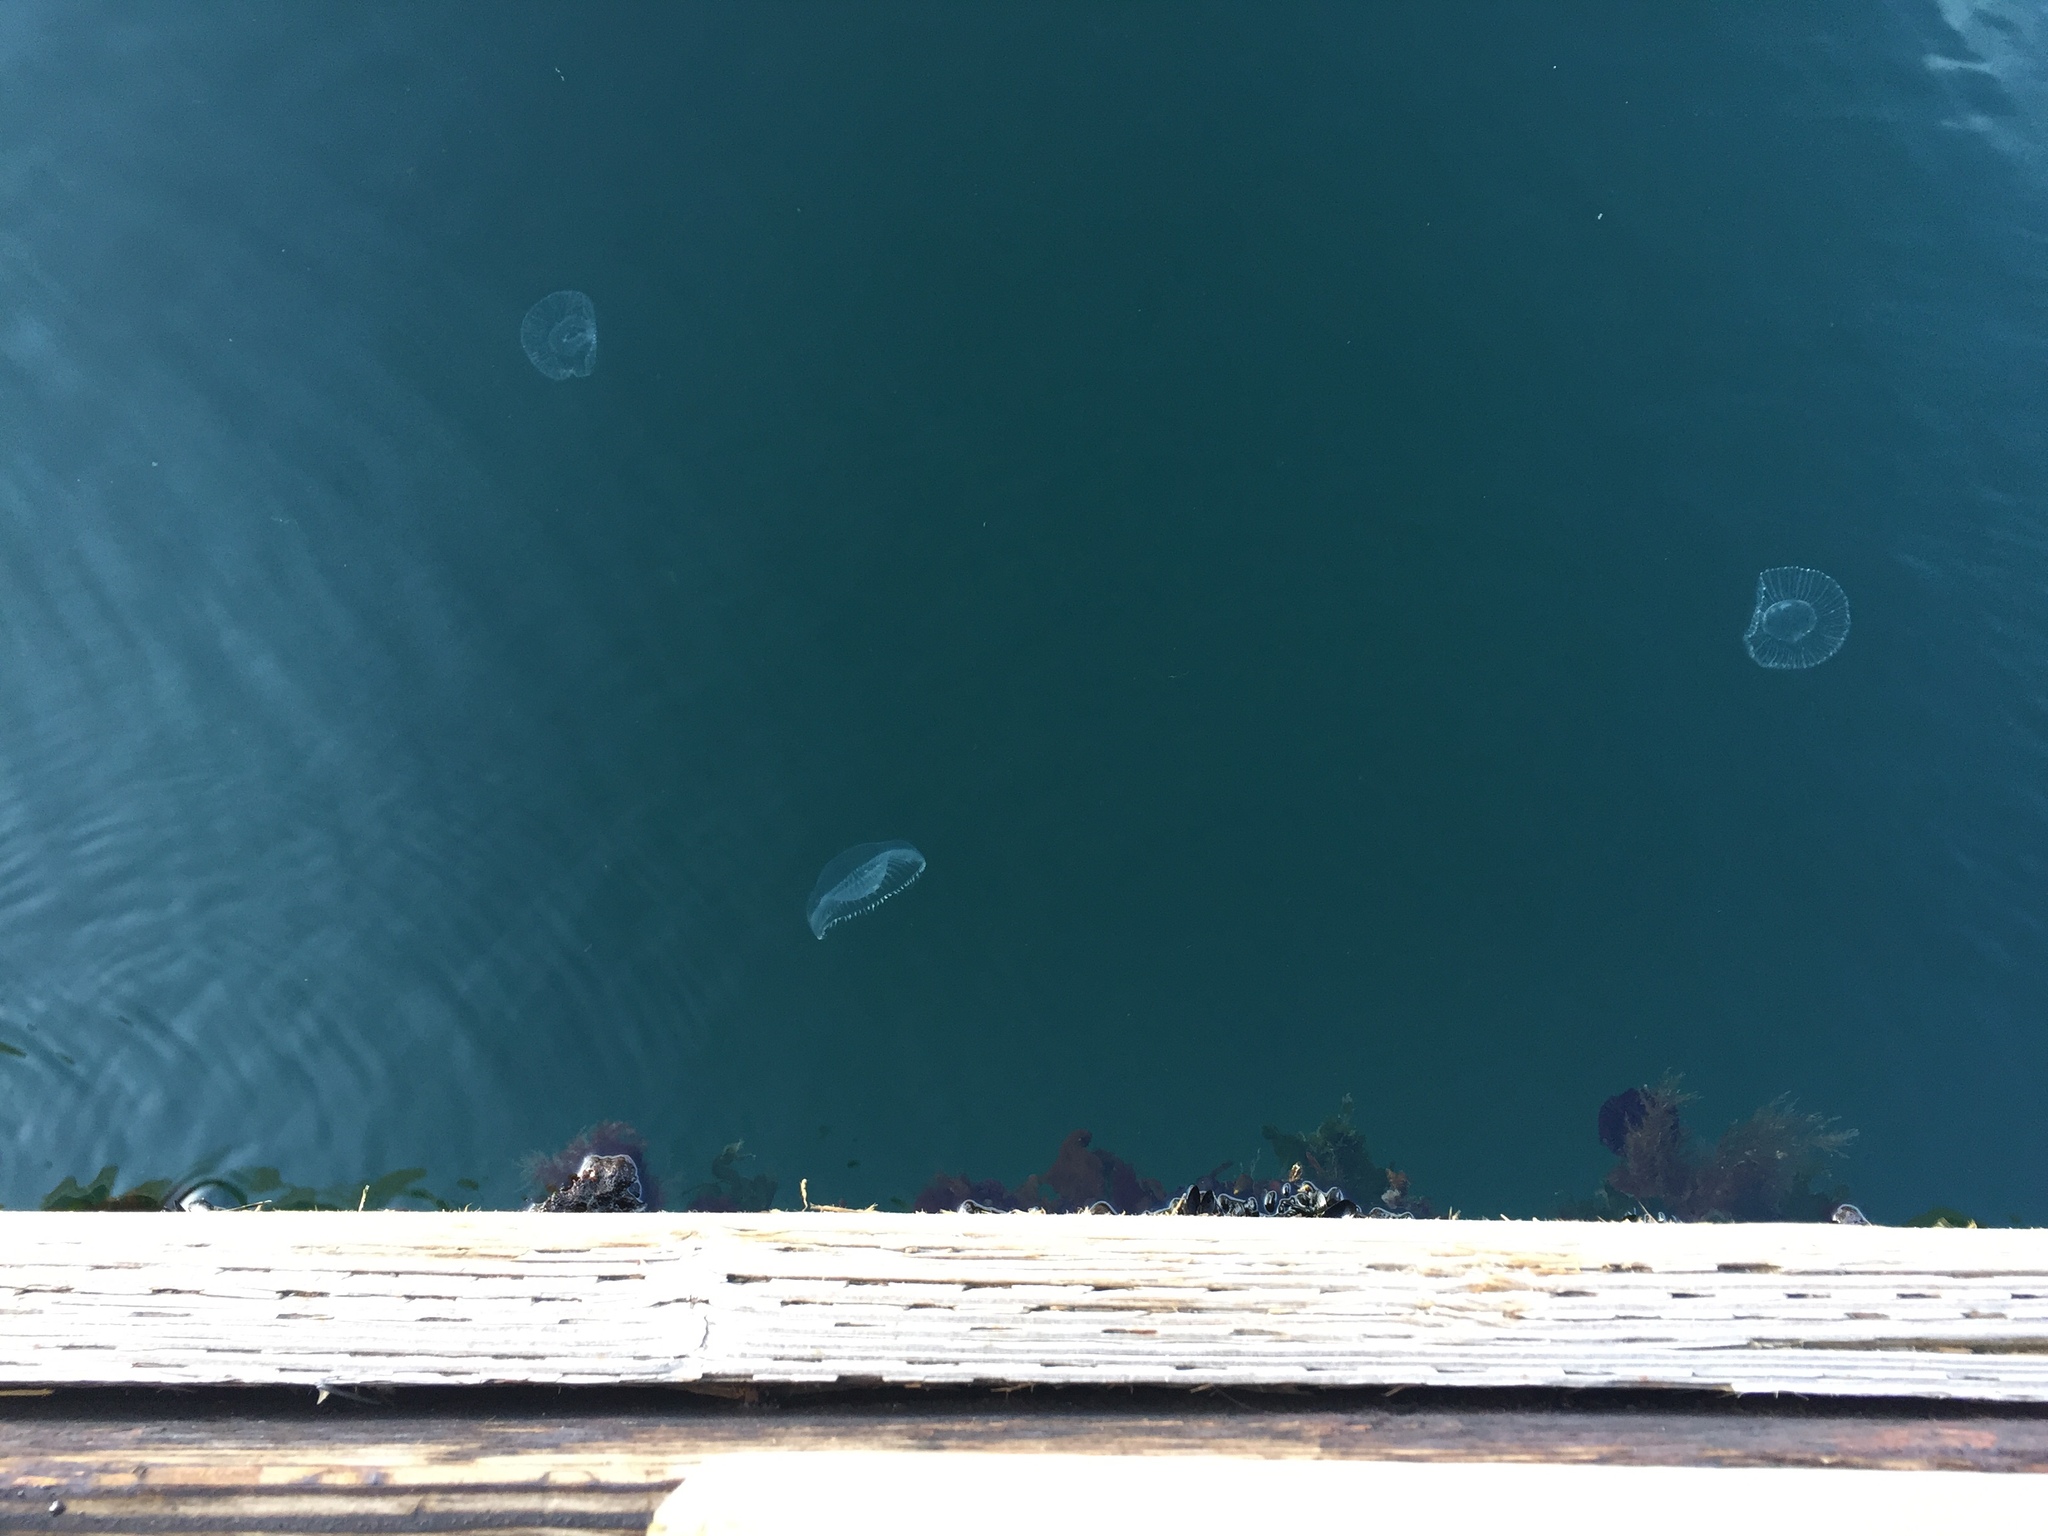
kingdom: Animalia
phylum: Cnidaria
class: Hydrozoa
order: Leptothecata
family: Aequoreidae
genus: Aequorea
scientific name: Aequorea victoria
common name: Water jellyfish
